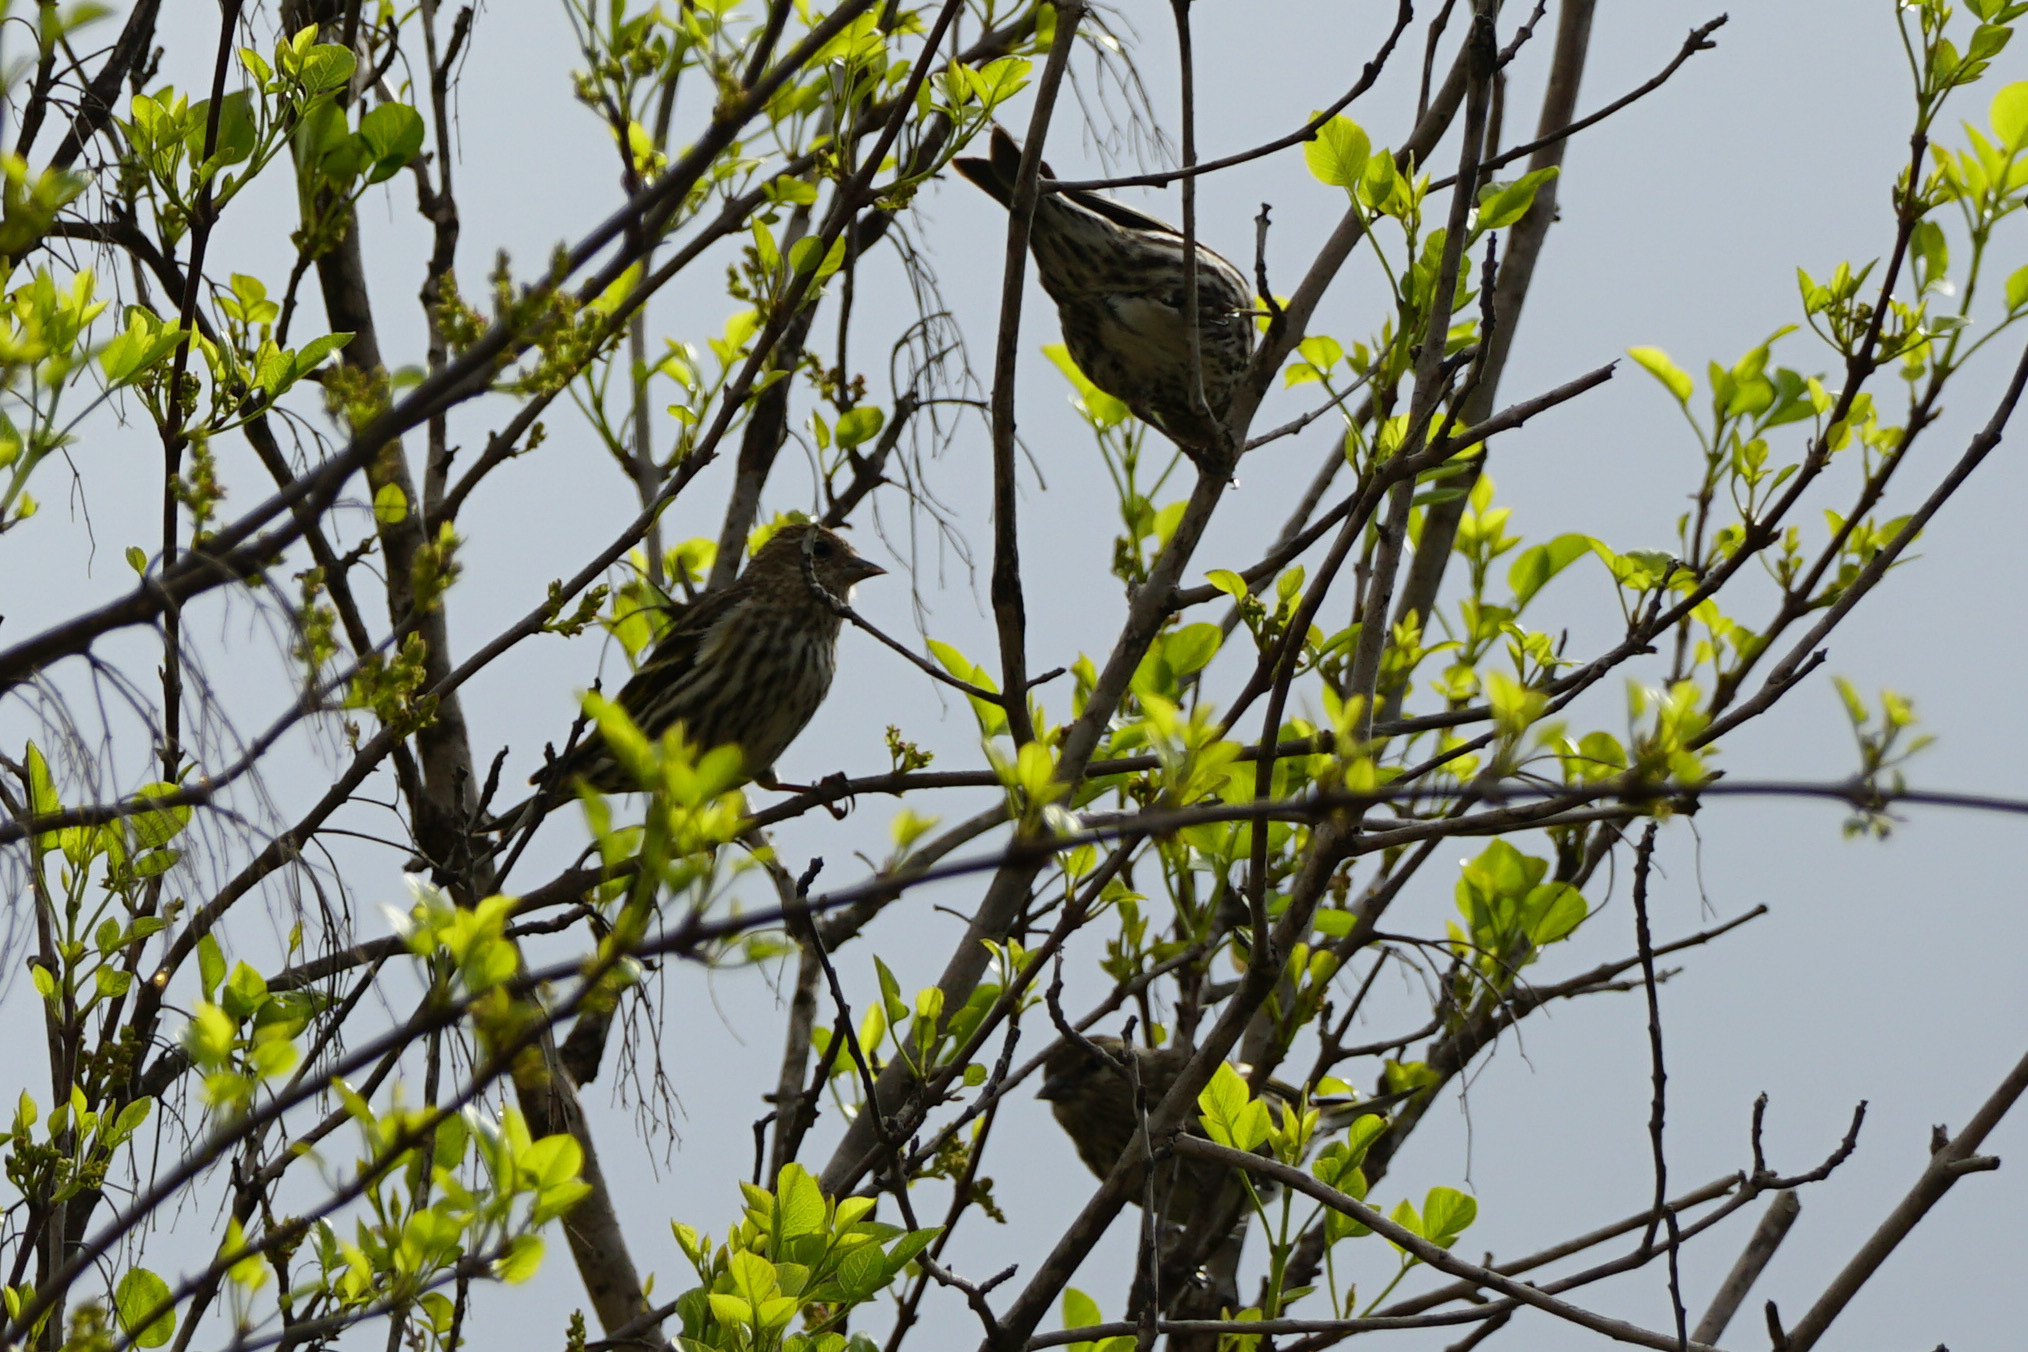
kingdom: Animalia
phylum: Chordata
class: Aves
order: Passeriformes
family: Fringillidae
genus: Spinus
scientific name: Spinus pinus
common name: Pine siskin
